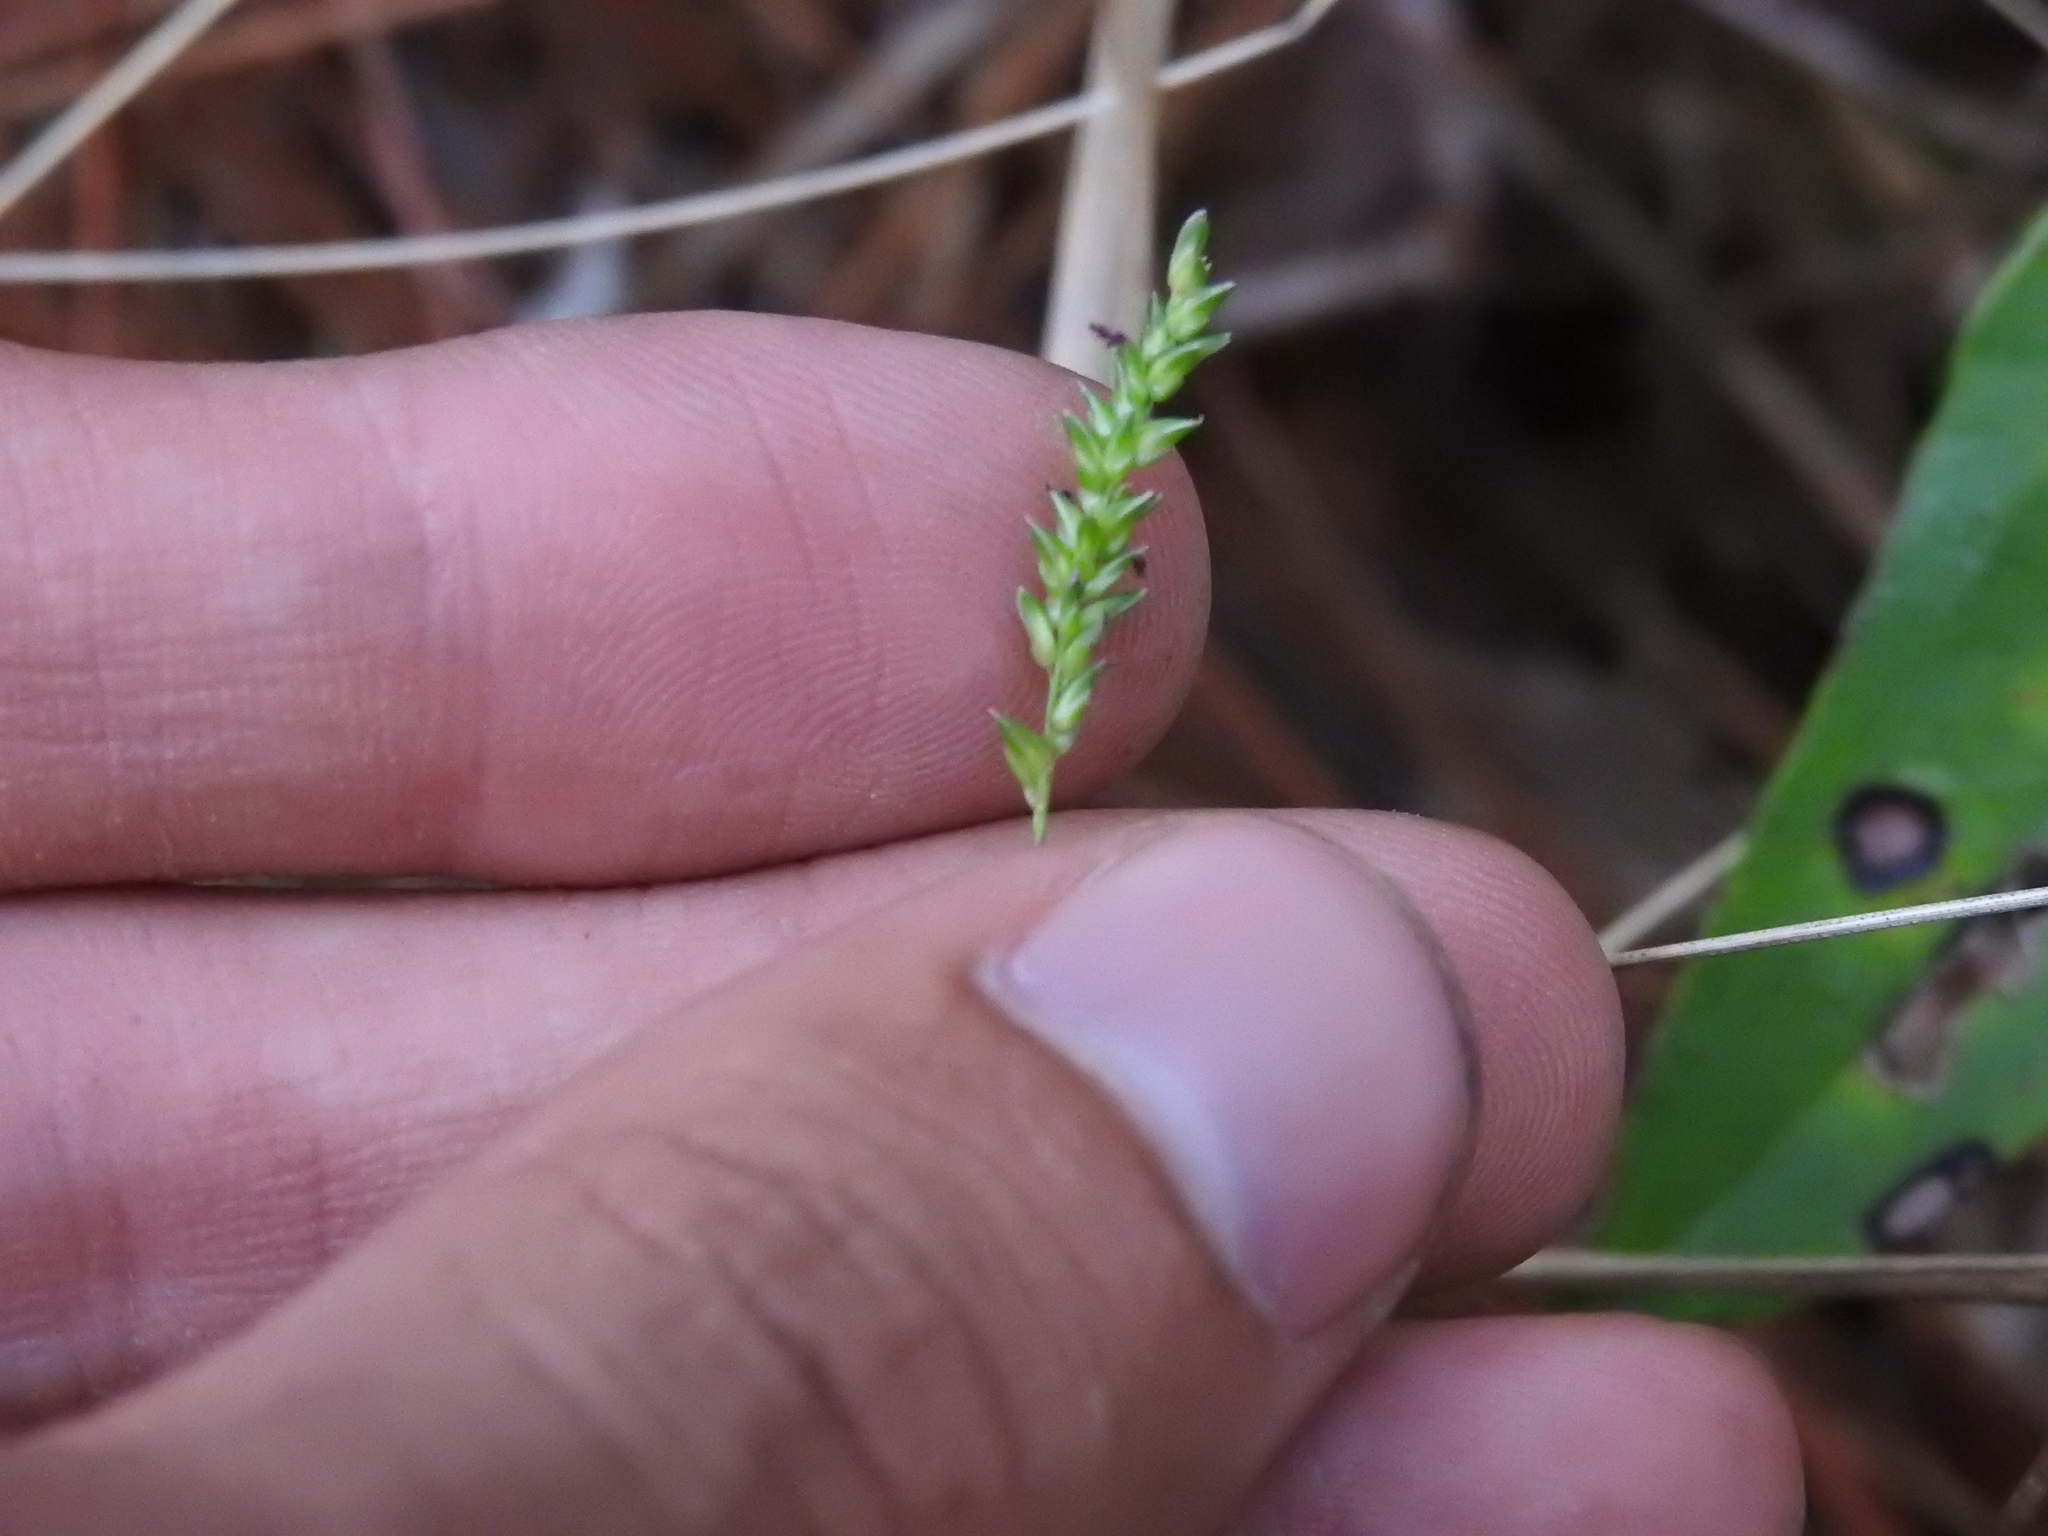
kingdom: Plantae
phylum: Tracheophyta
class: Liliopsida
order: Poales
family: Poaceae
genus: Sacciolepis
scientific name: Sacciolepis indica
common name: Glenwoodgrass
